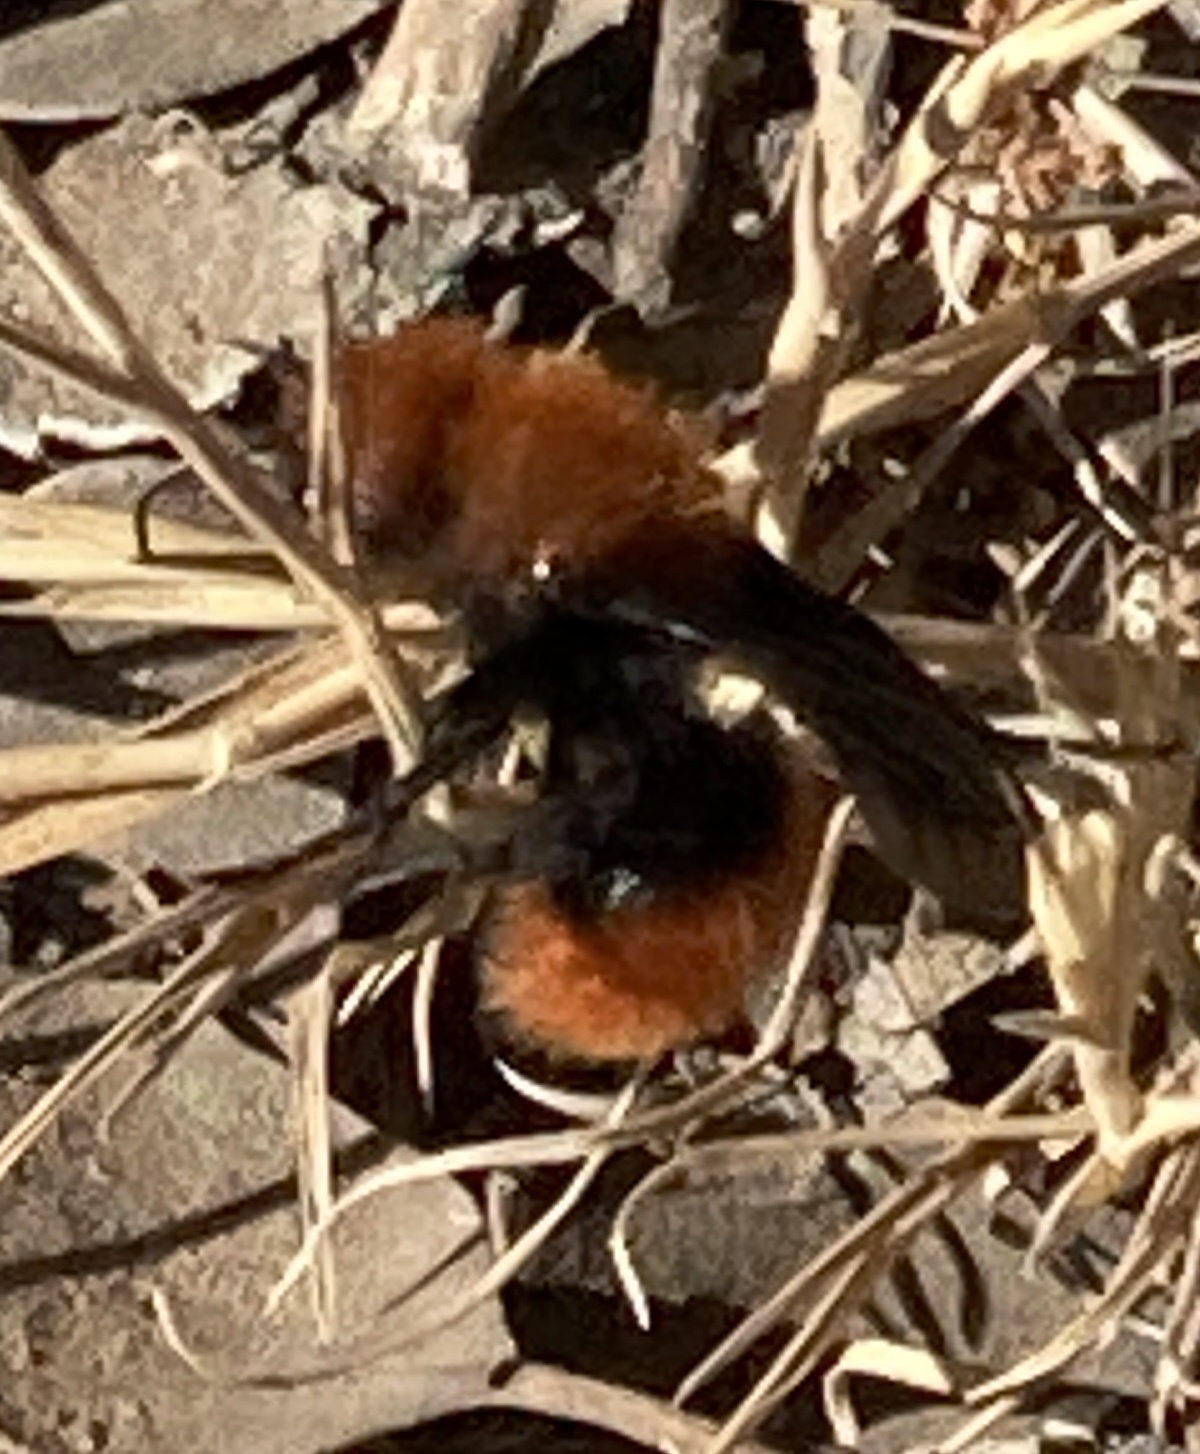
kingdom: Animalia
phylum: Arthropoda
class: Insecta
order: Hymenoptera
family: Mutillidae
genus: Dasymutilla
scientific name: Dasymutilla
